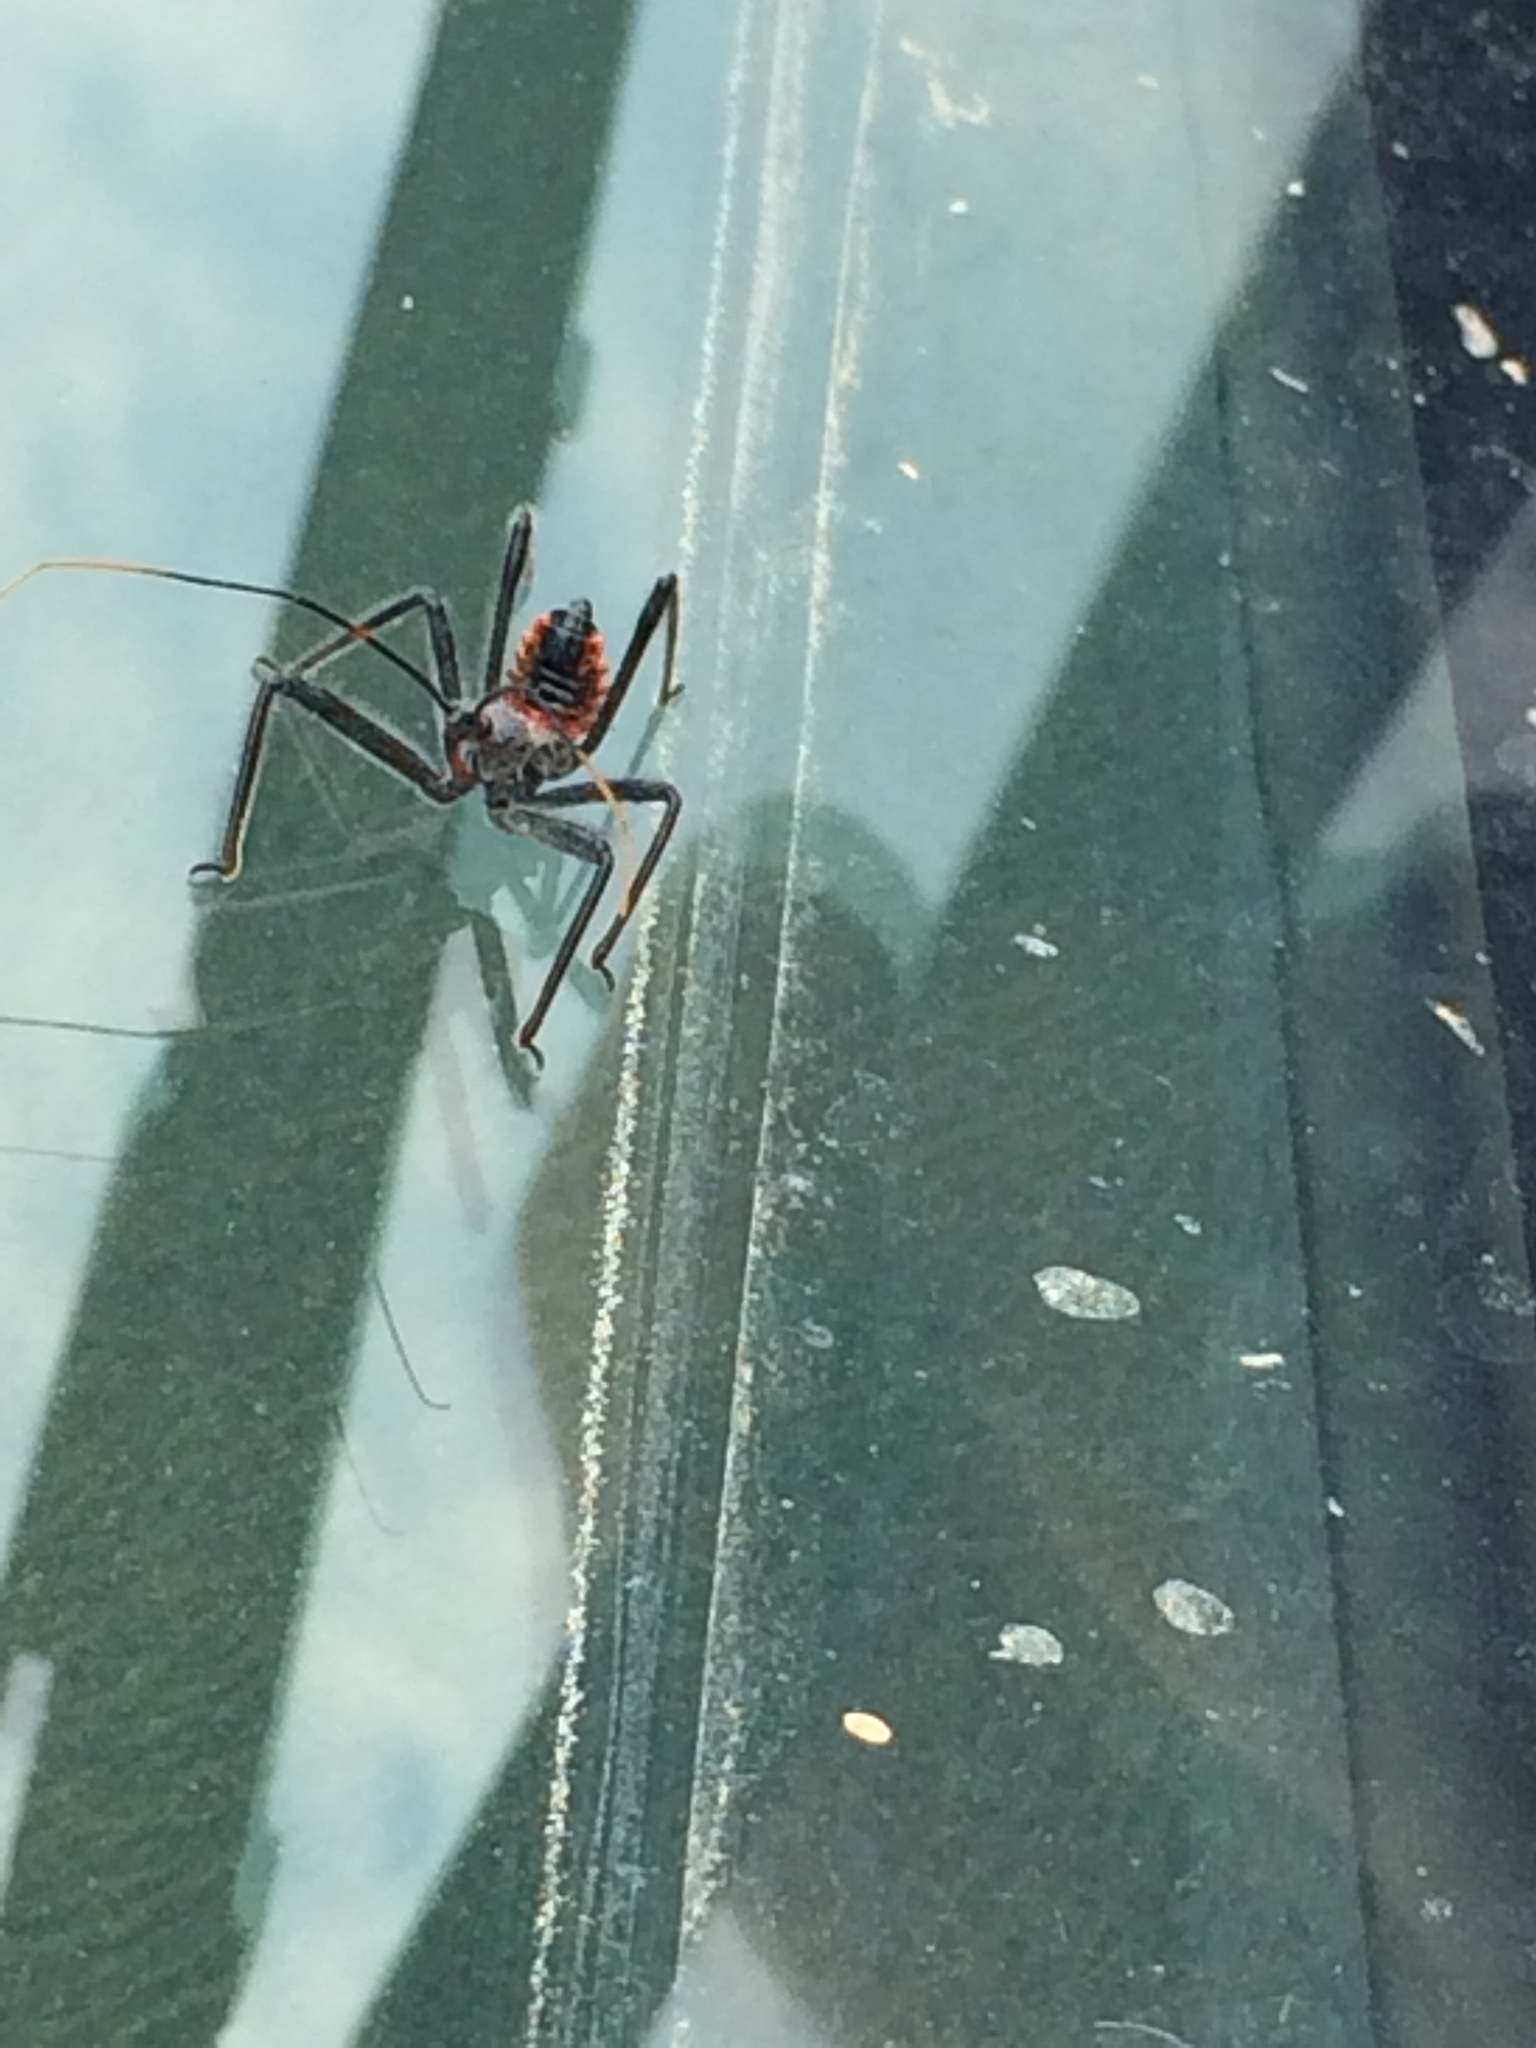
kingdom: Animalia
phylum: Arthropoda
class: Insecta
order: Hemiptera
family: Reduviidae
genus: Arilus
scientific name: Arilus cristatus
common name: North american wheel bug
